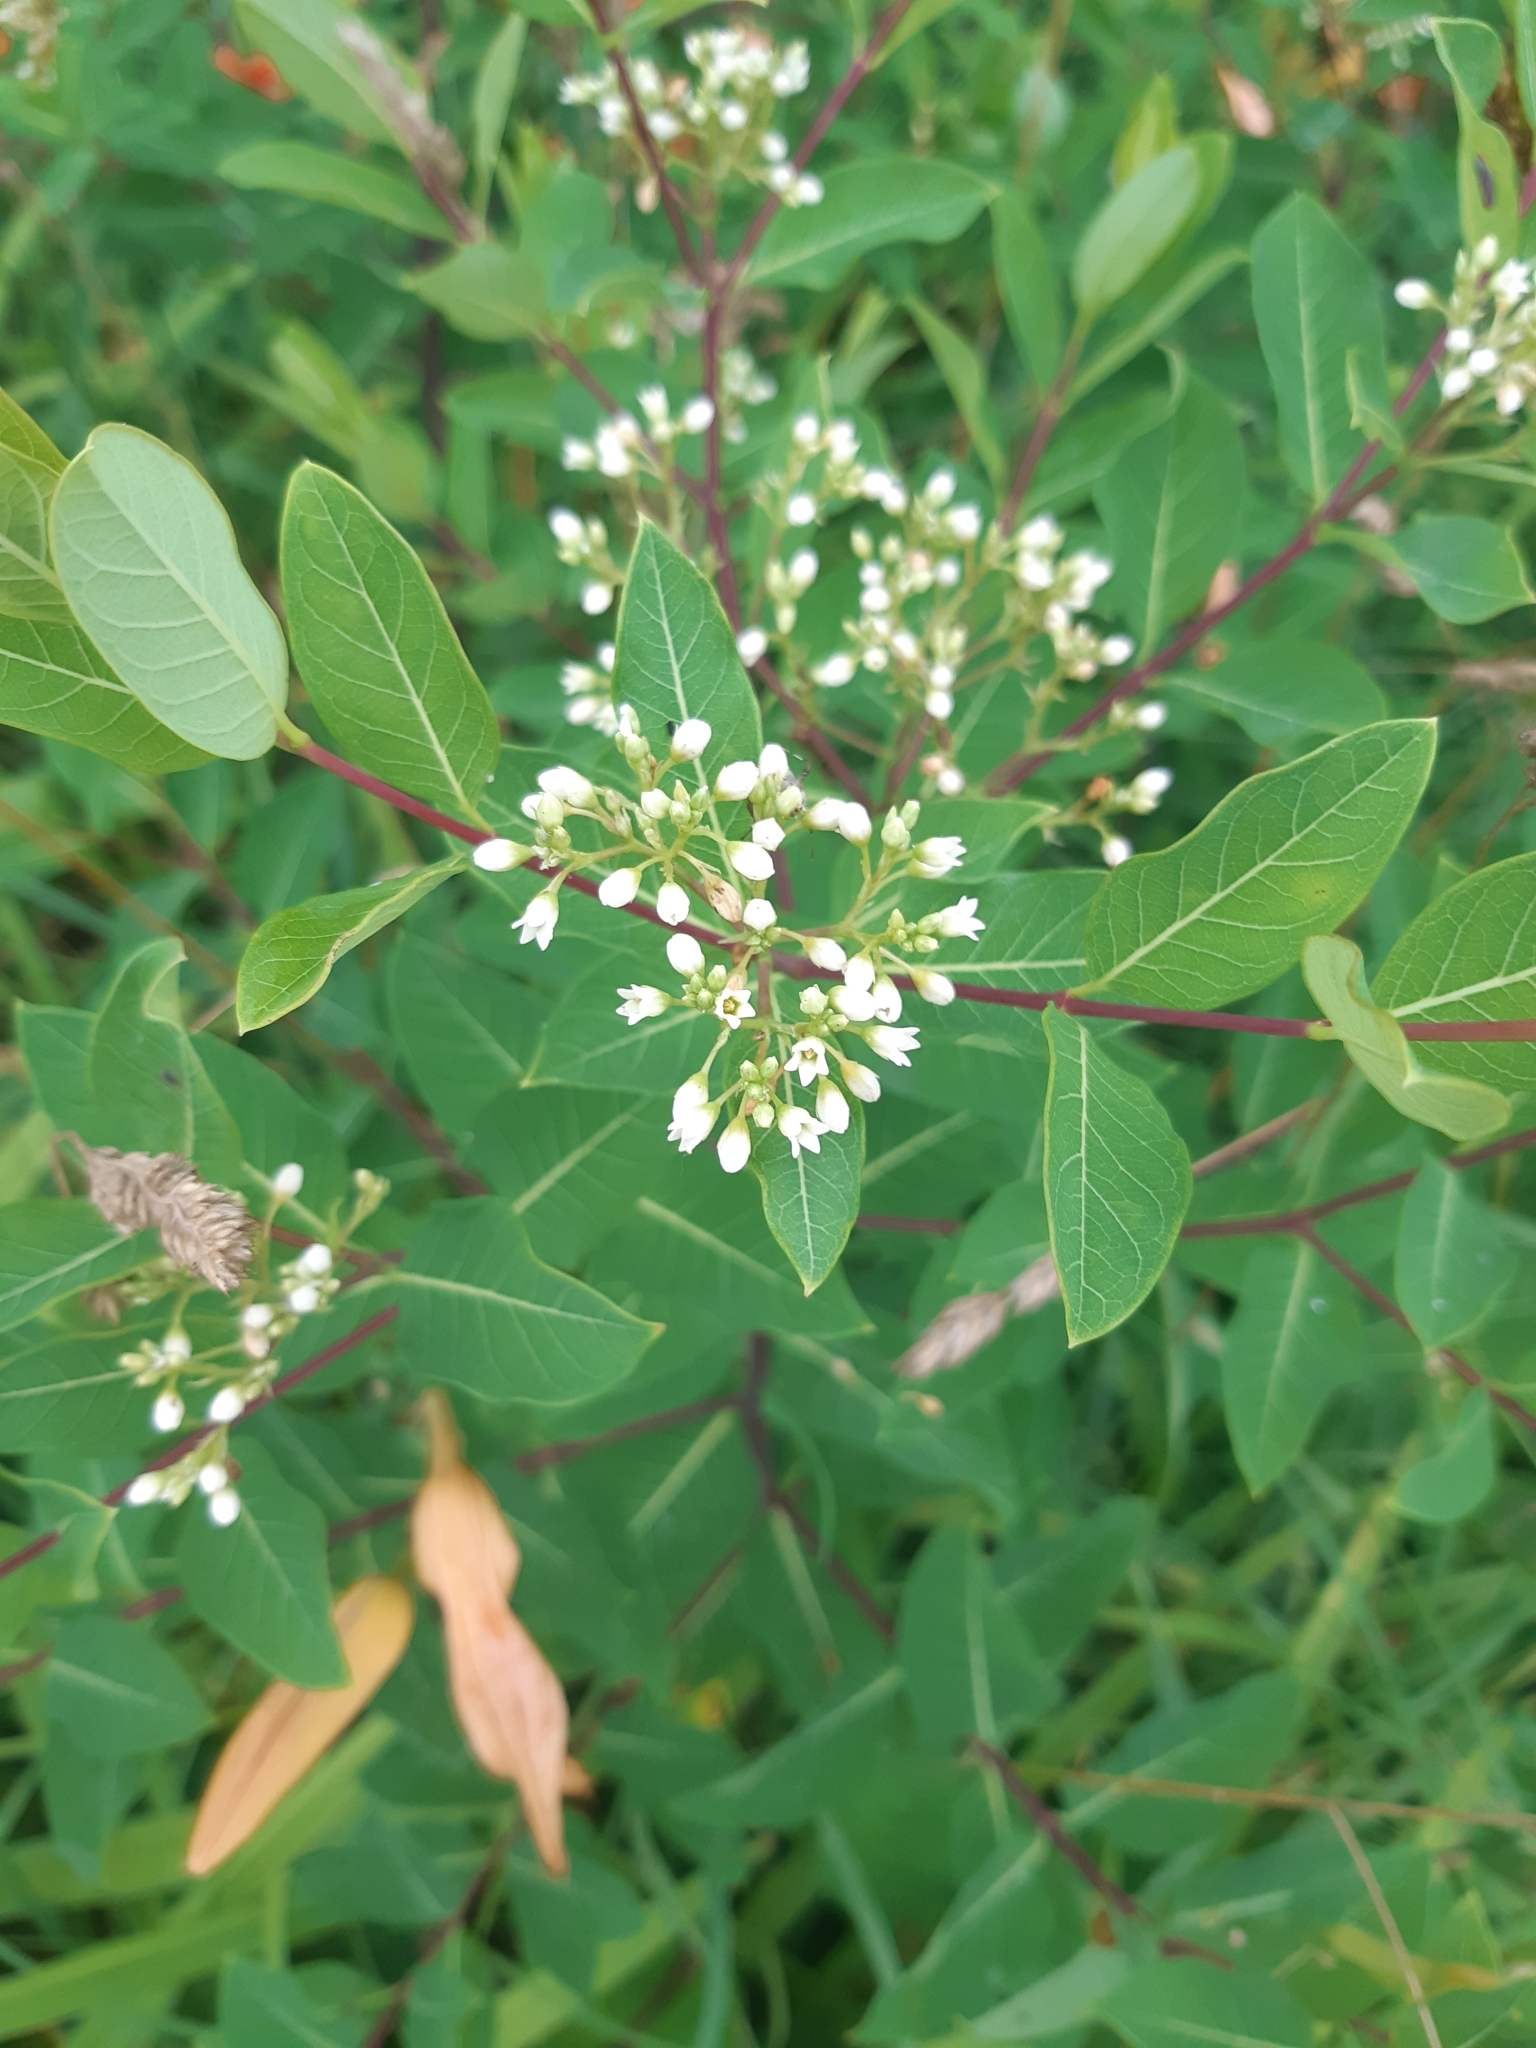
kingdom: Plantae
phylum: Tracheophyta
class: Magnoliopsida
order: Gentianales
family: Apocynaceae
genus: Apocynum
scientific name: Apocynum cannabinum
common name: Hemp dogbane
